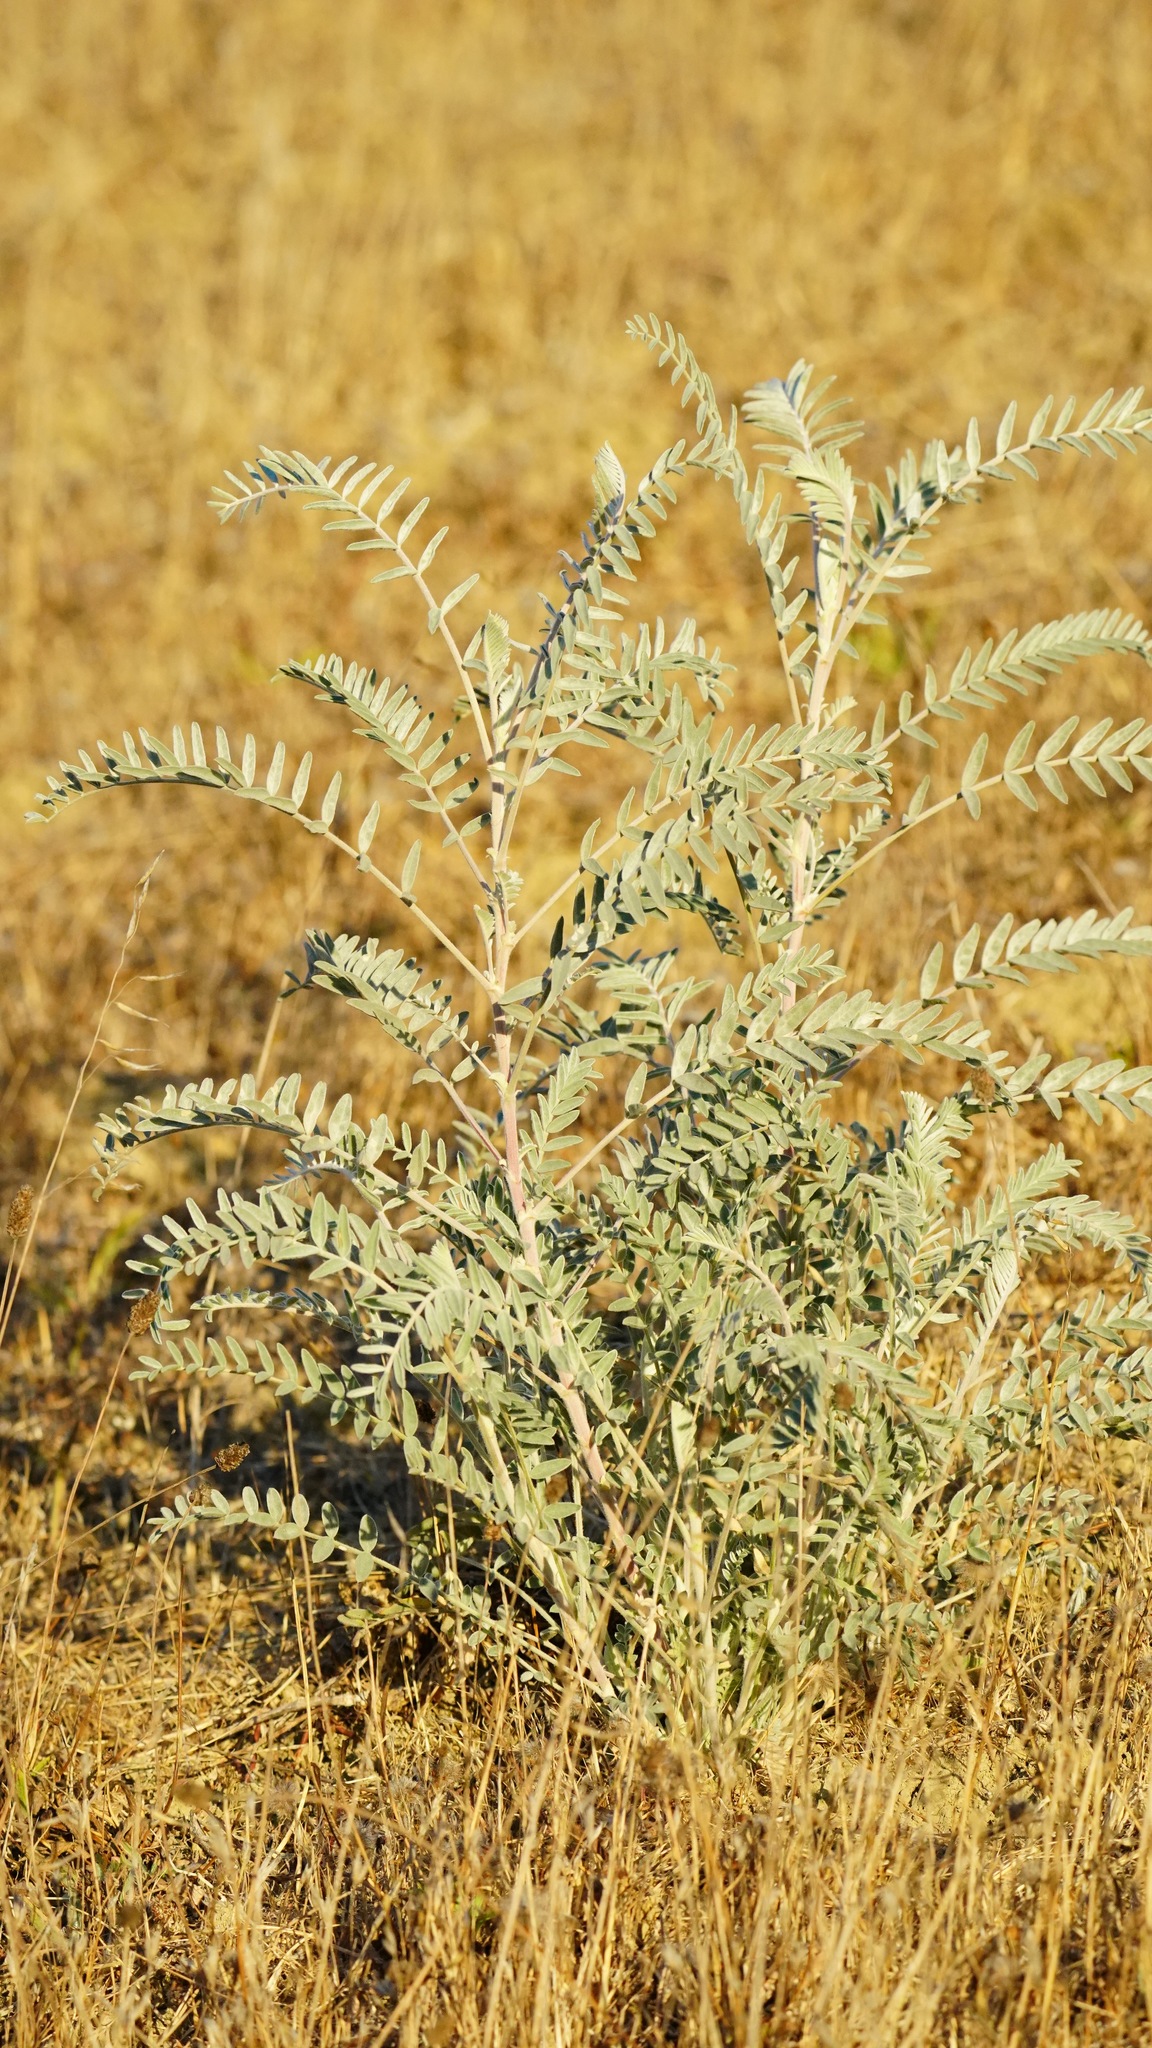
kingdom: Plantae
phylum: Tracheophyta
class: Magnoliopsida
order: Fabales
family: Fabaceae
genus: Astragalus
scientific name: Astragalus asymmetricus
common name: Horse locoweed
